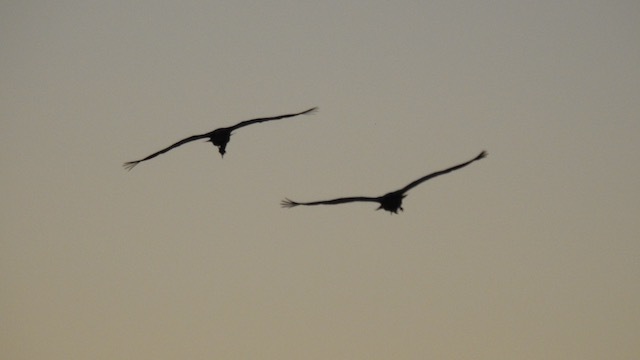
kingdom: Animalia
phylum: Chordata
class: Aves
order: Gruiformes
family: Gruidae
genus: Grus
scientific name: Grus canadensis
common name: Sandhill crane
